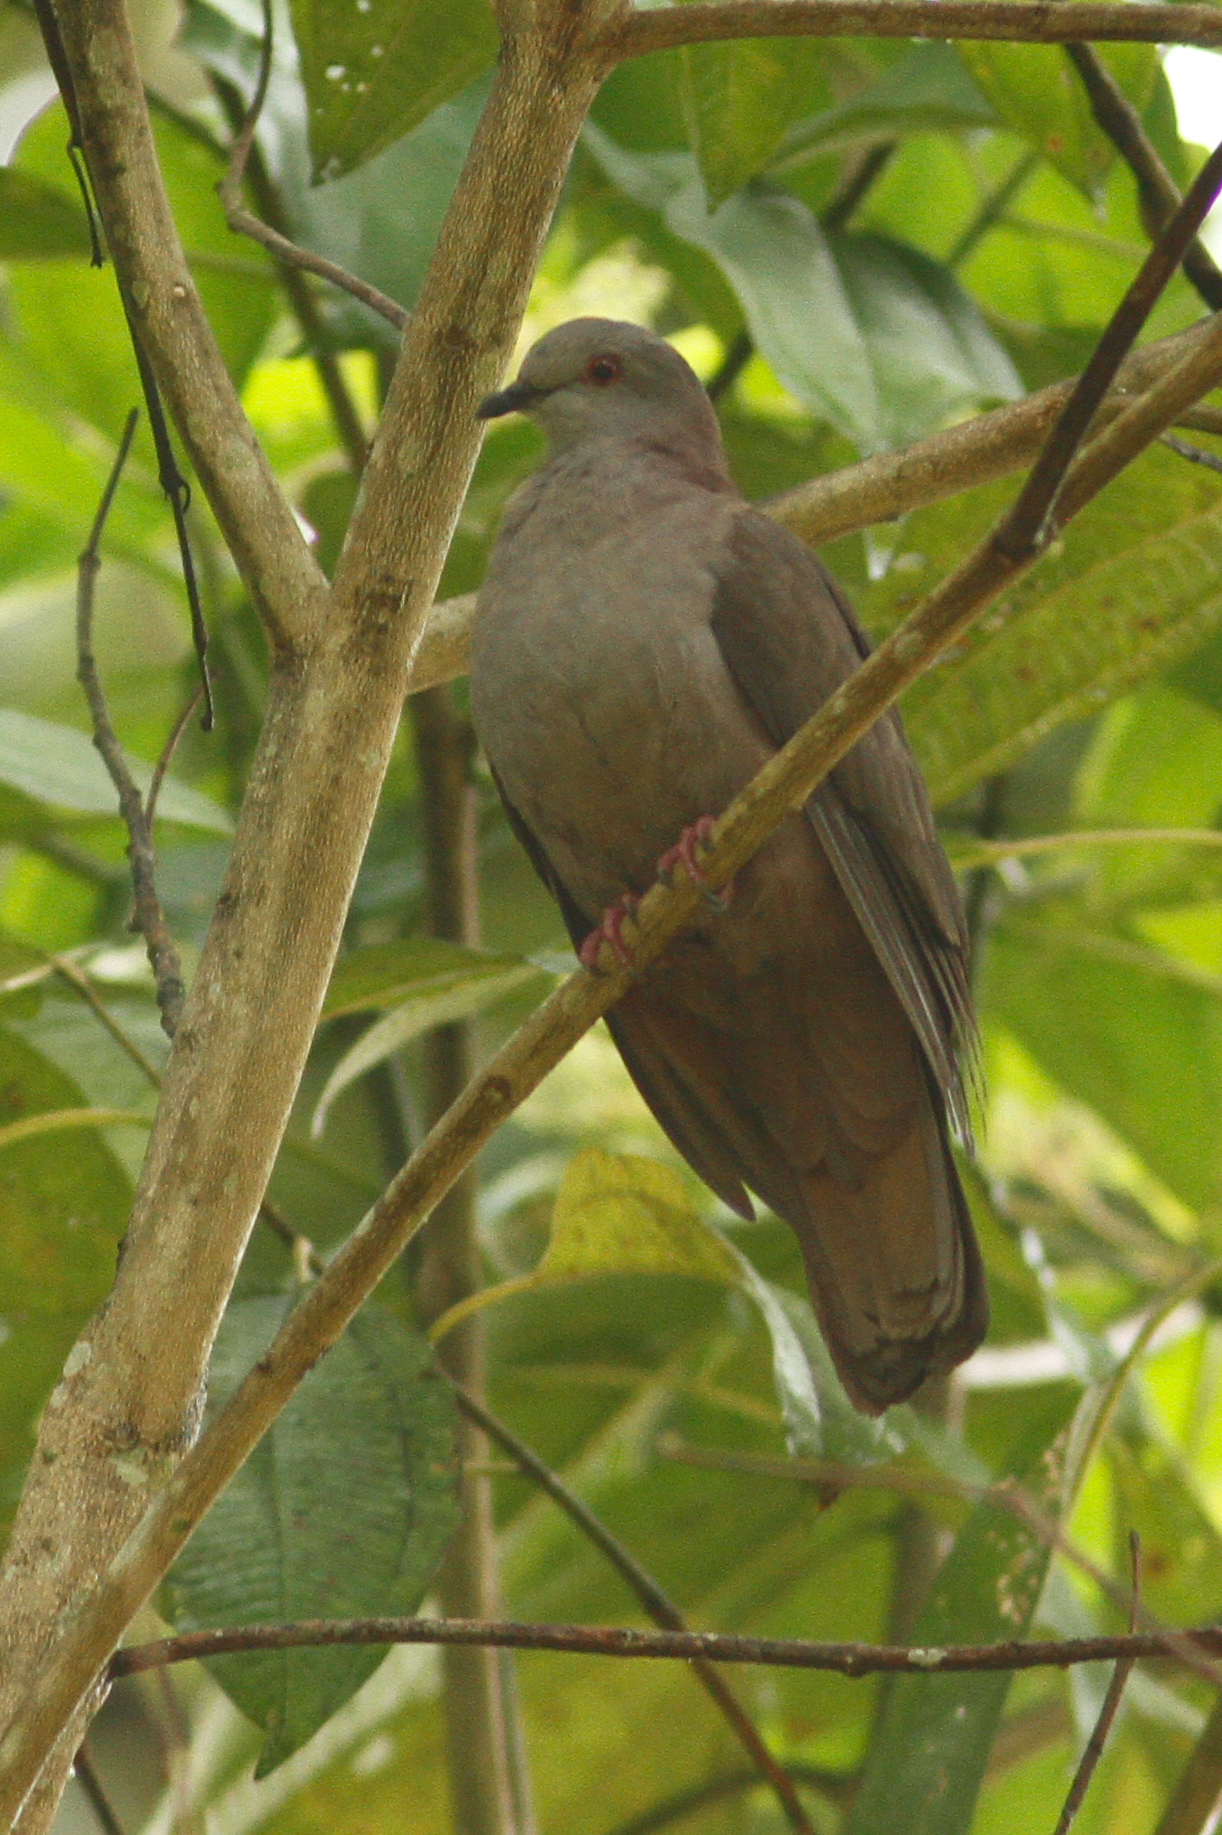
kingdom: Animalia
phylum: Chordata
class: Aves
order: Columbiformes
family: Columbidae
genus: Patagioenas
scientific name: Patagioenas goodsoni
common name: Dusky pigeon
